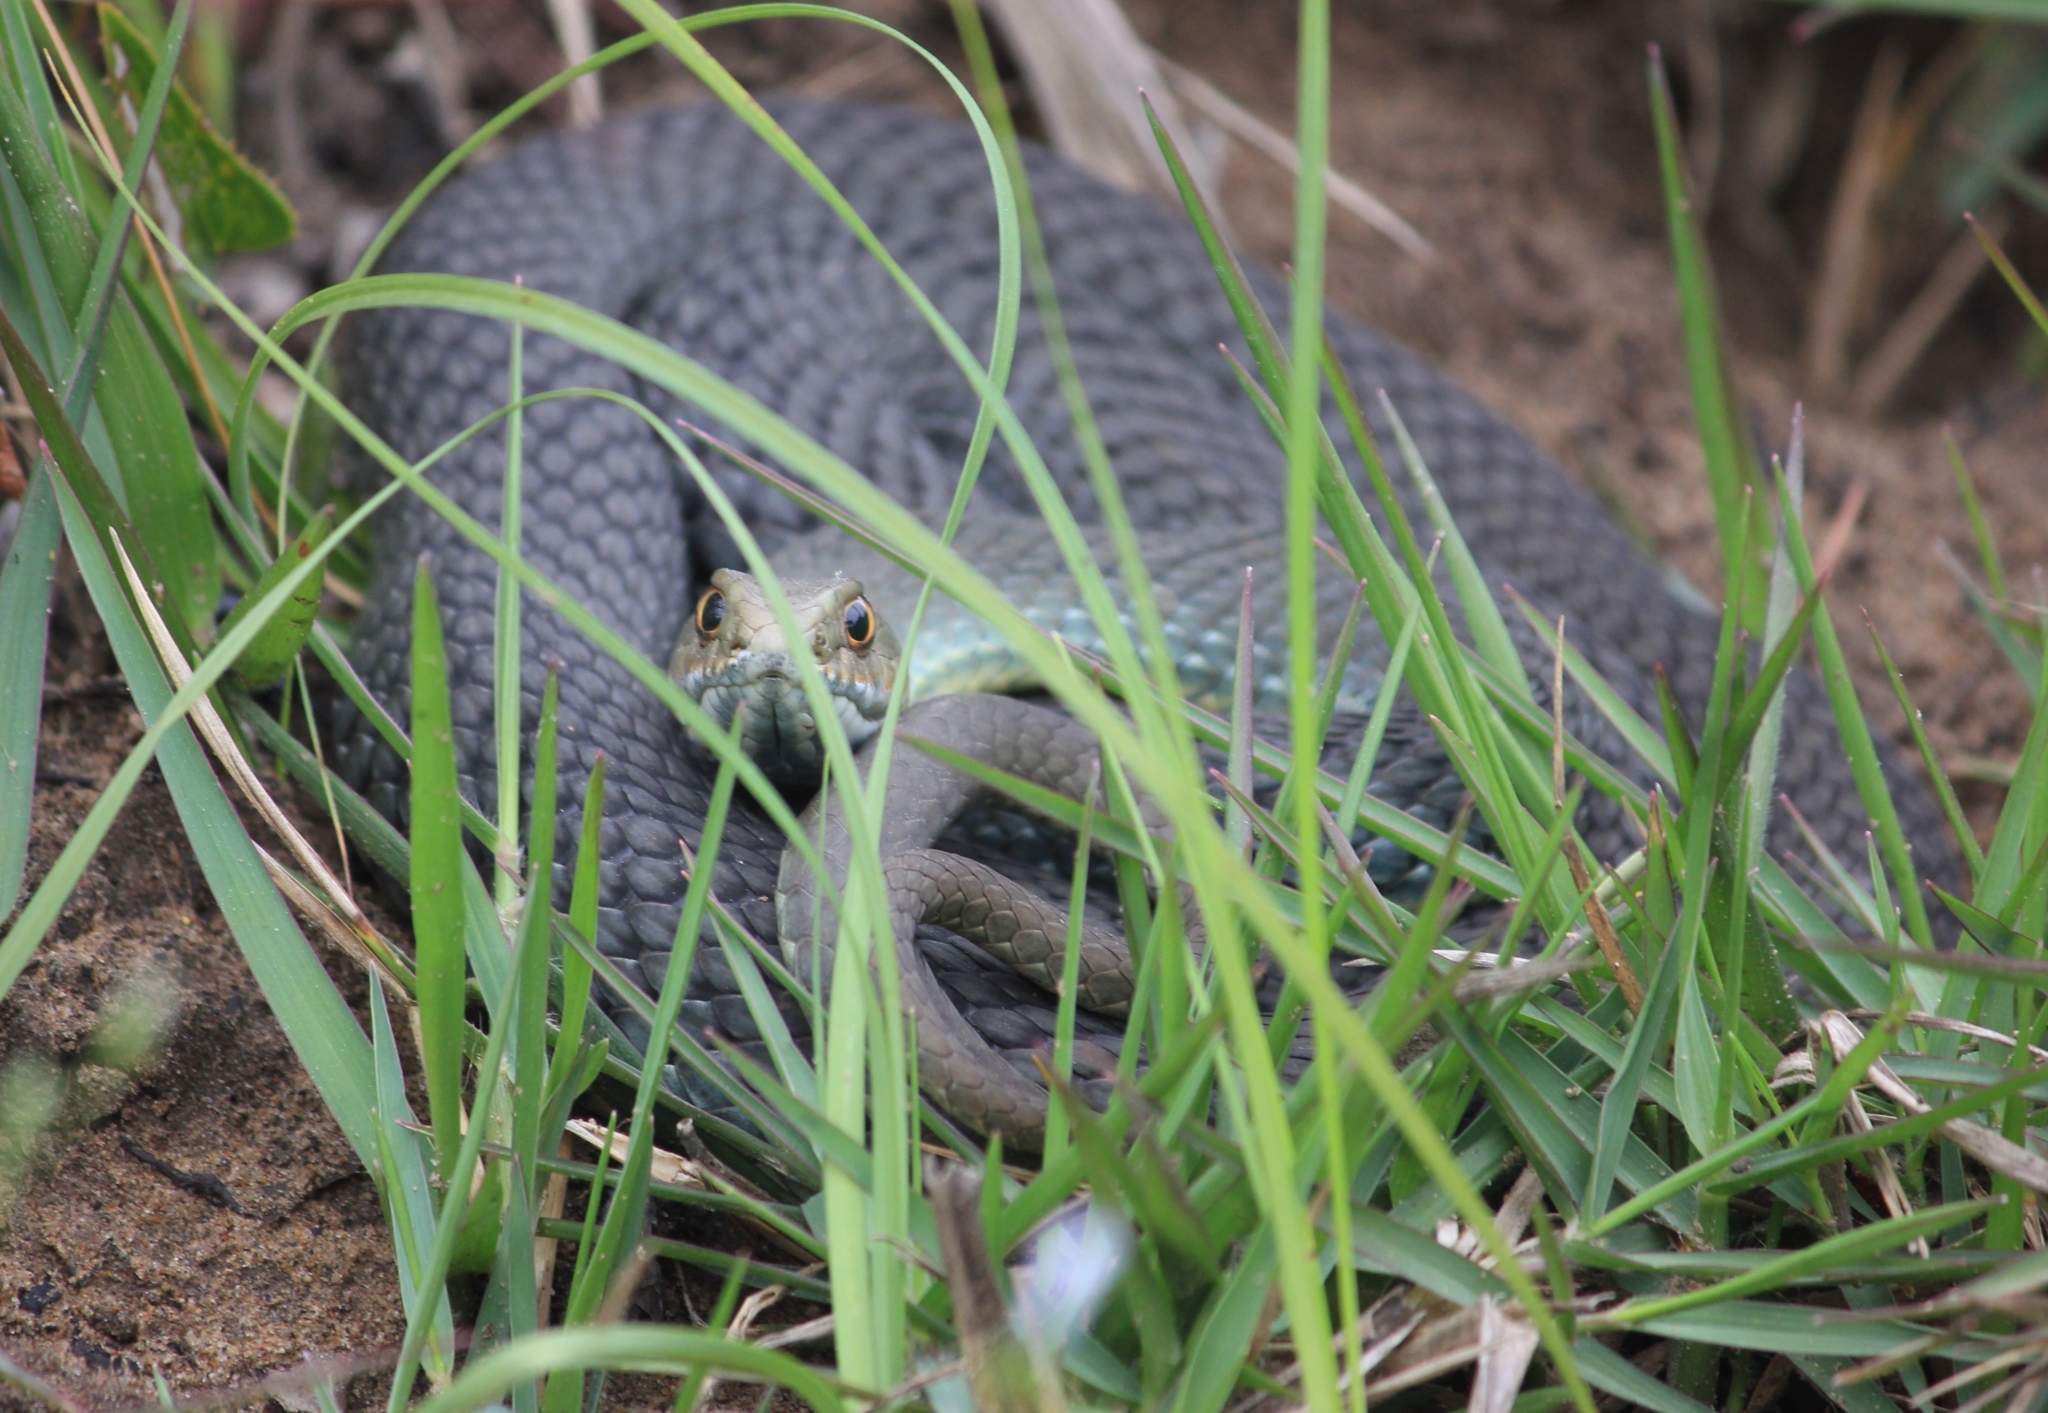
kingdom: Animalia
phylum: Chordata
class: Squamata
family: Psammophiidae
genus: Malpolon
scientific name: Malpolon insignitus
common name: Eastern montpellier snake
